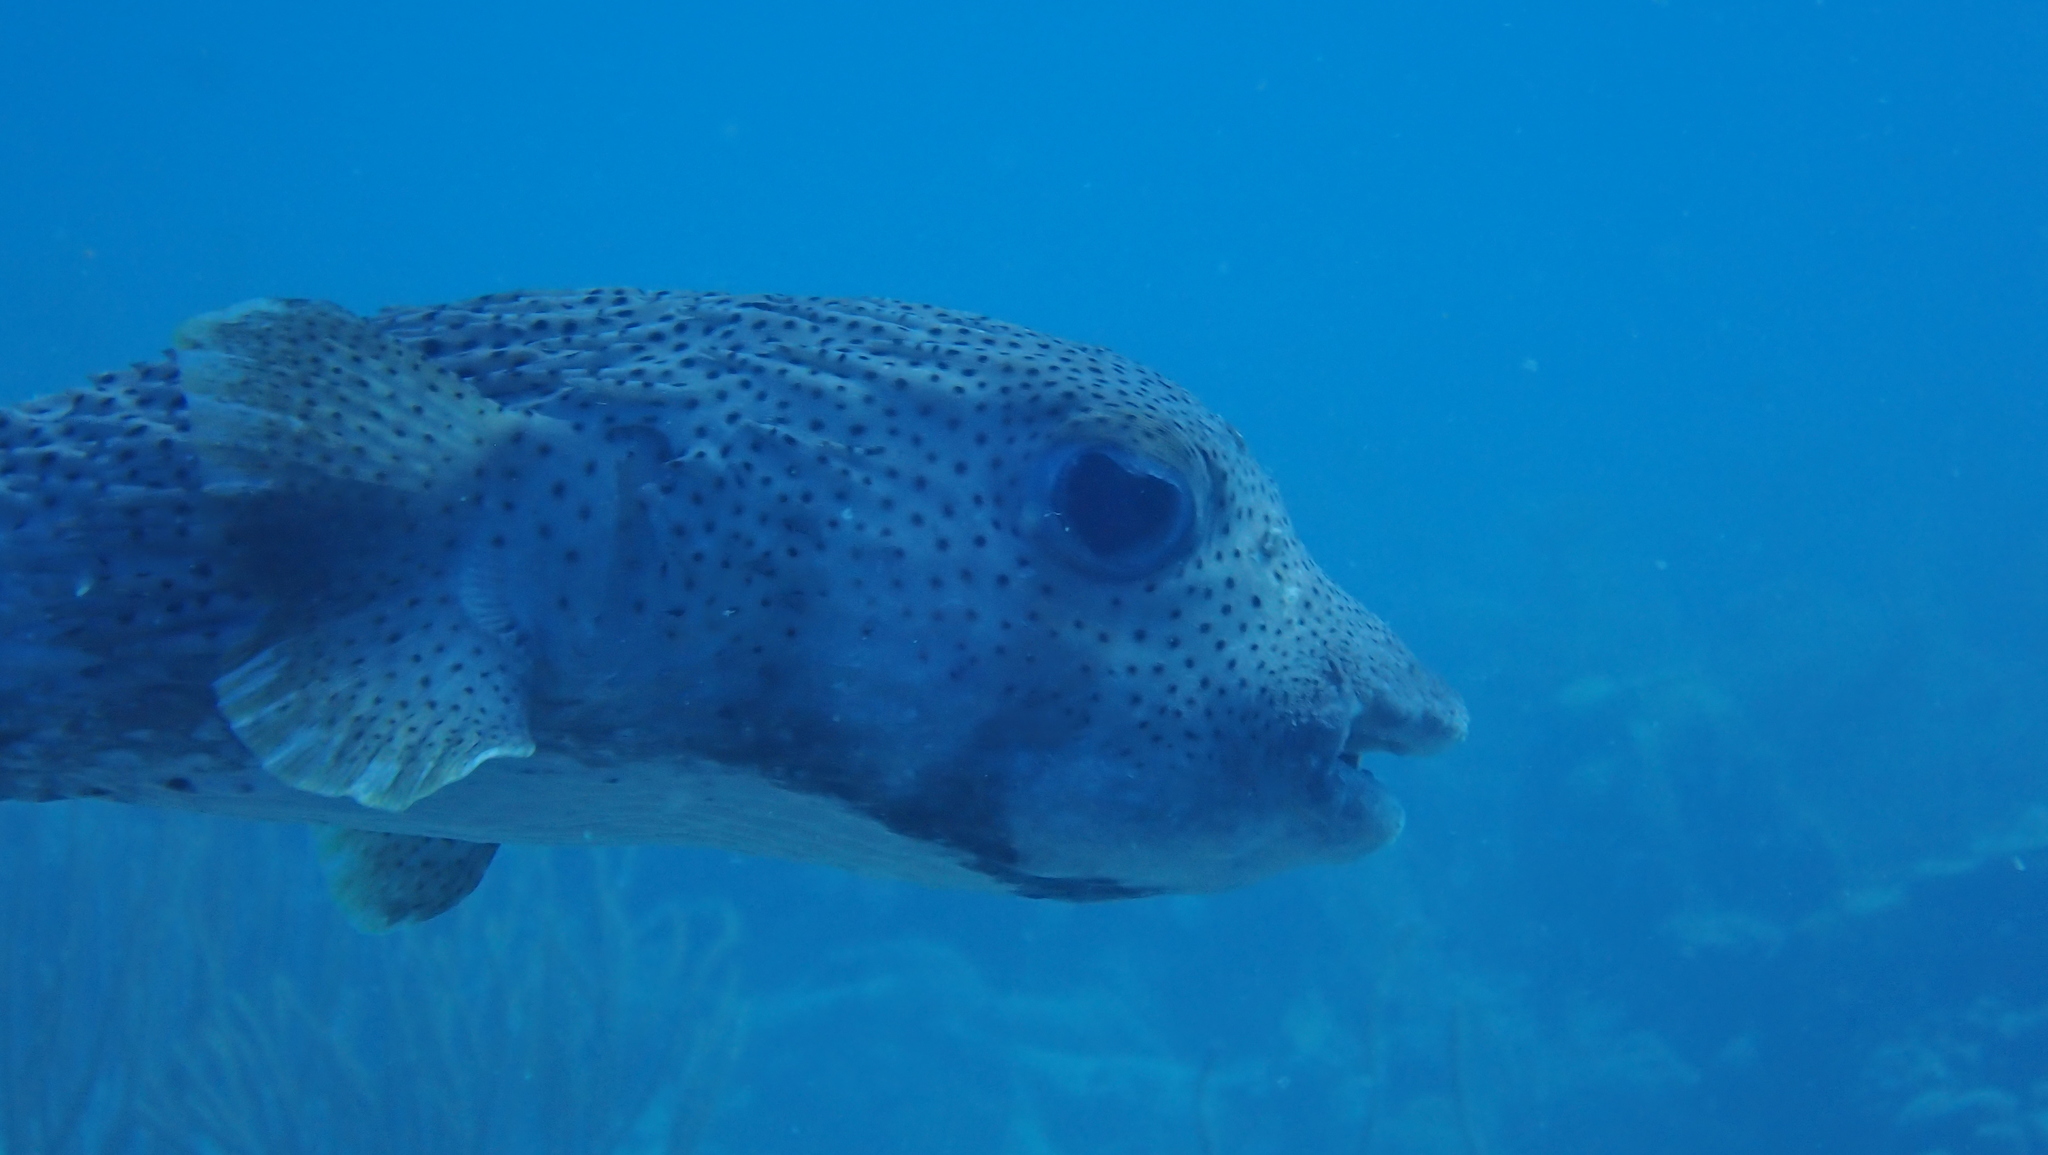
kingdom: Animalia
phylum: Chordata
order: Tetraodontiformes
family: Diodontidae
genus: Diodon
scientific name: Diodon hystrix
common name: Giant porcupinefish
